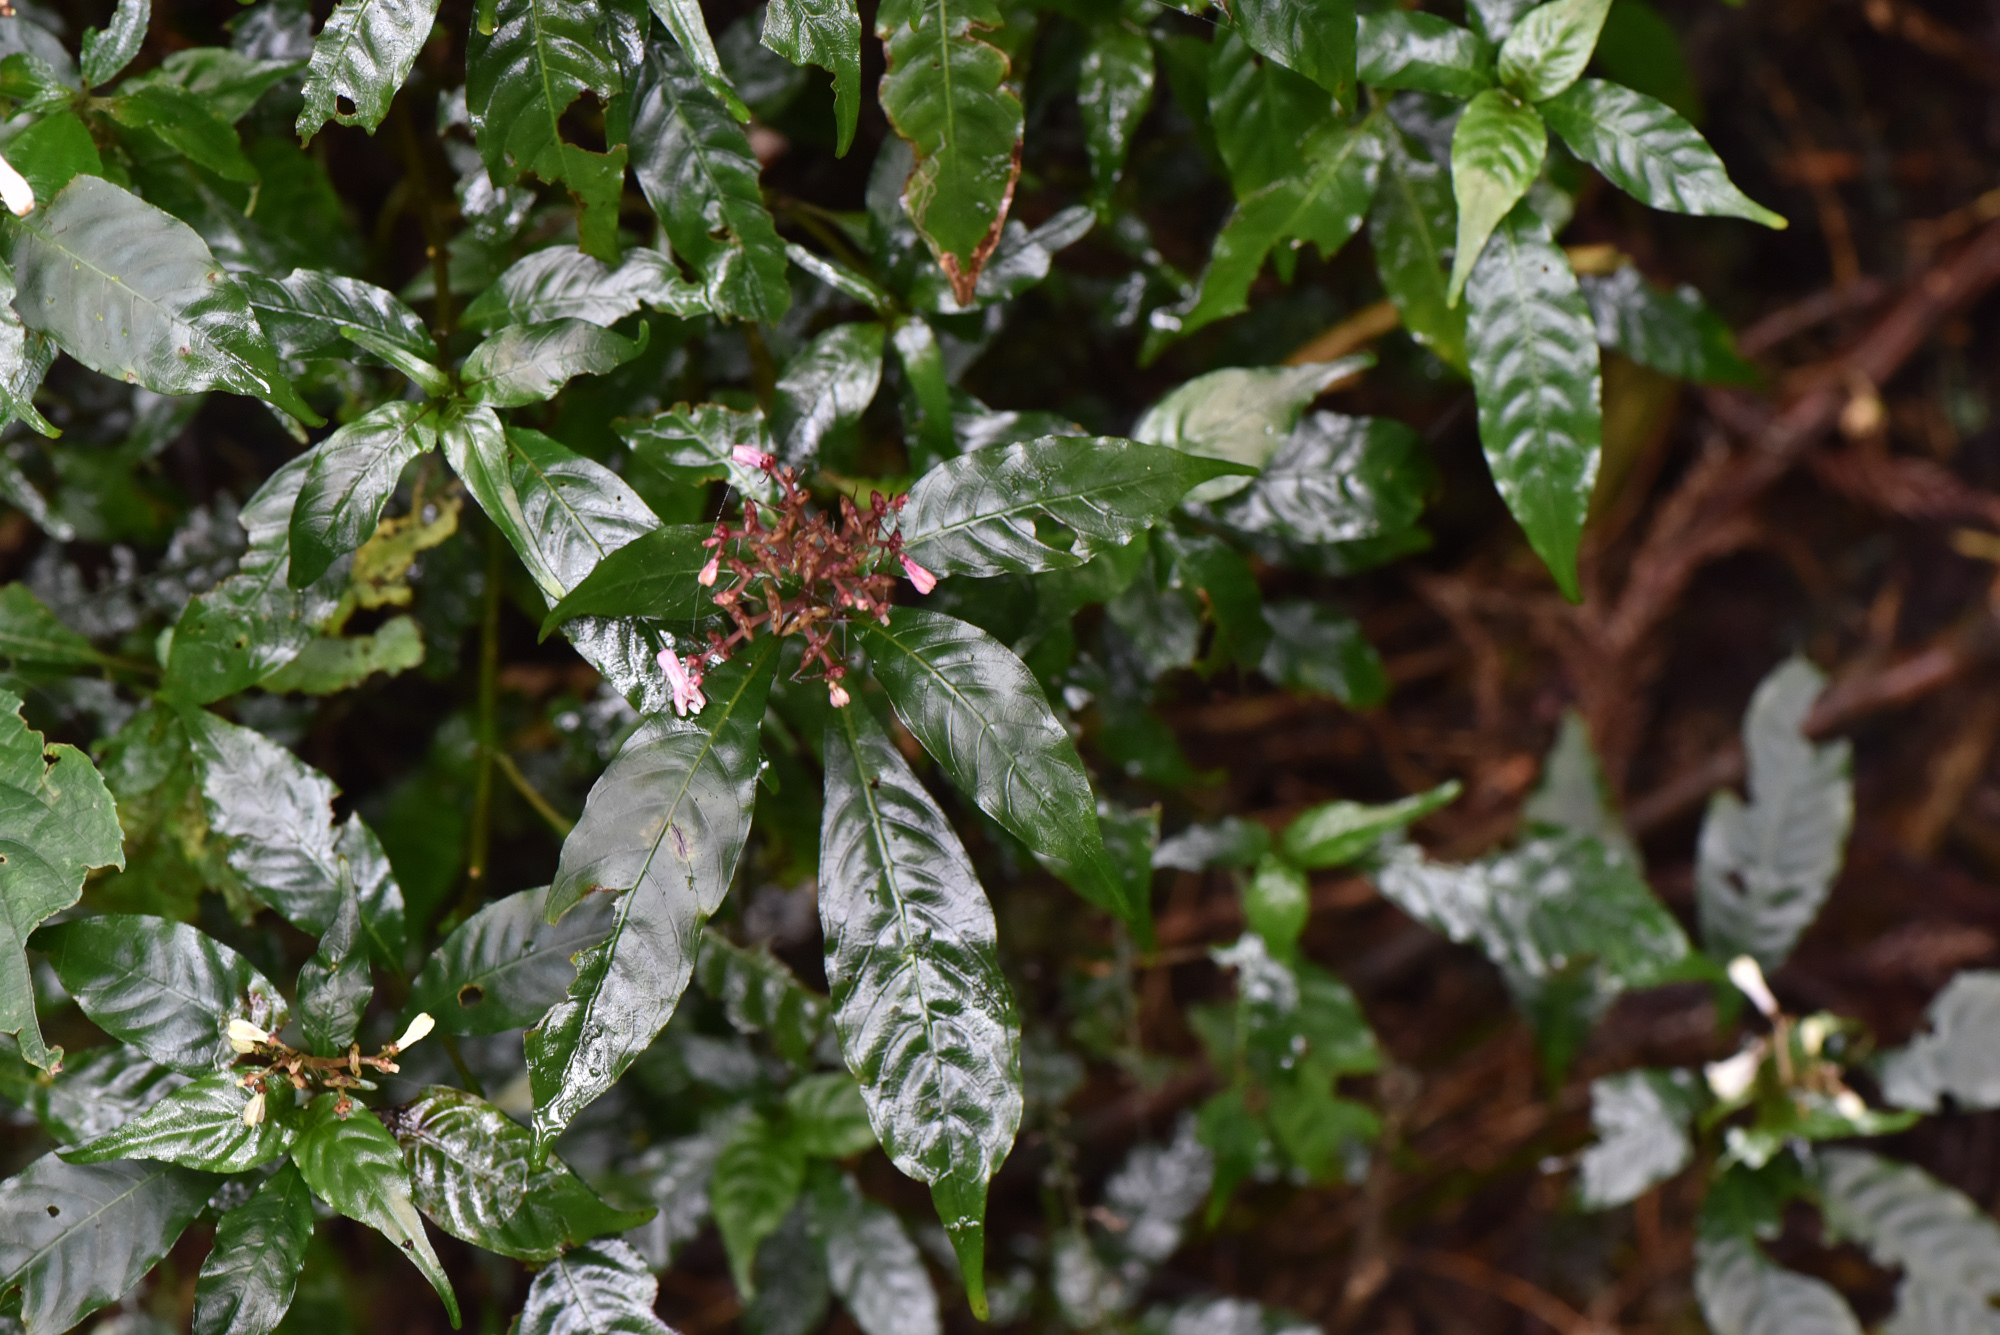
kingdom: Plantae
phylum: Tracheophyta
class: Magnoliopsida
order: Gentianales
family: Rubiaceae
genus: Ophiorrhiza
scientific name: Ophiorrhiza japonica
